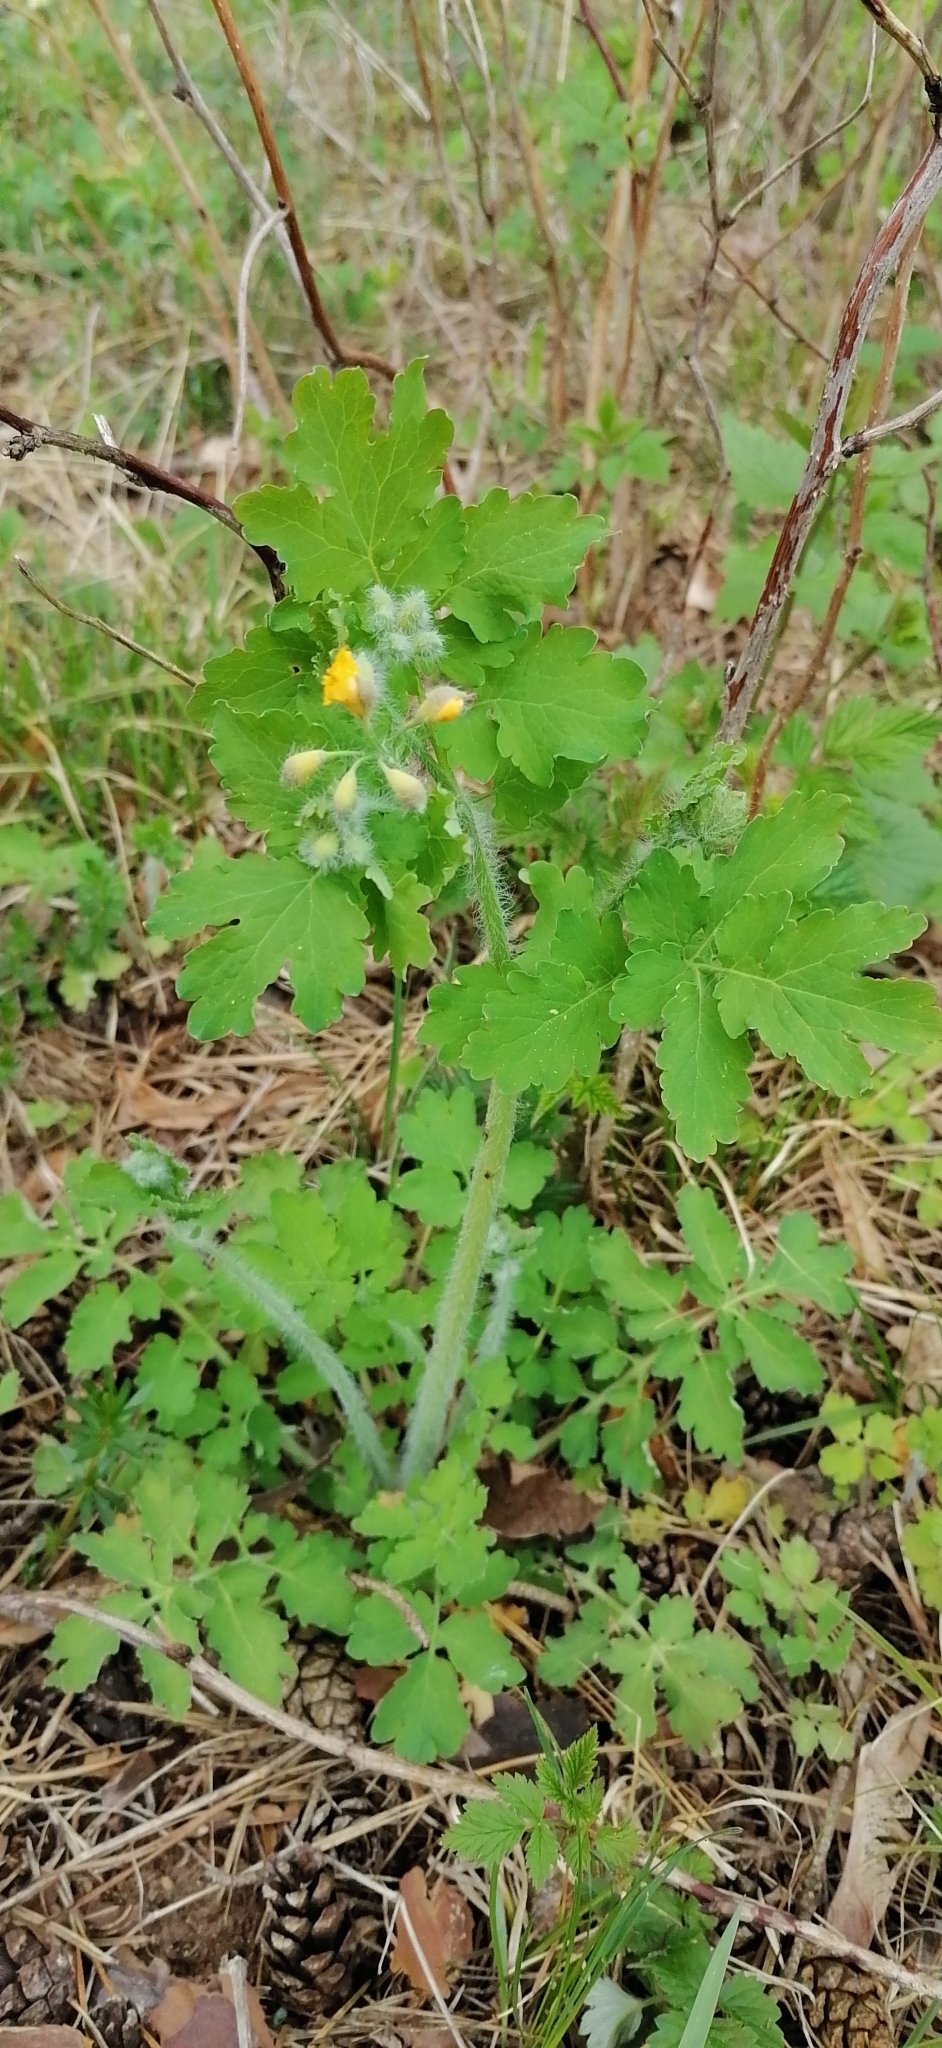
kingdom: Plantae
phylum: Tracheophyta
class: Magnoliopsida
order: Ranunculales
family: Papaveraceae
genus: Chelidonium
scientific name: Chelidonium majus
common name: Greater celandine
